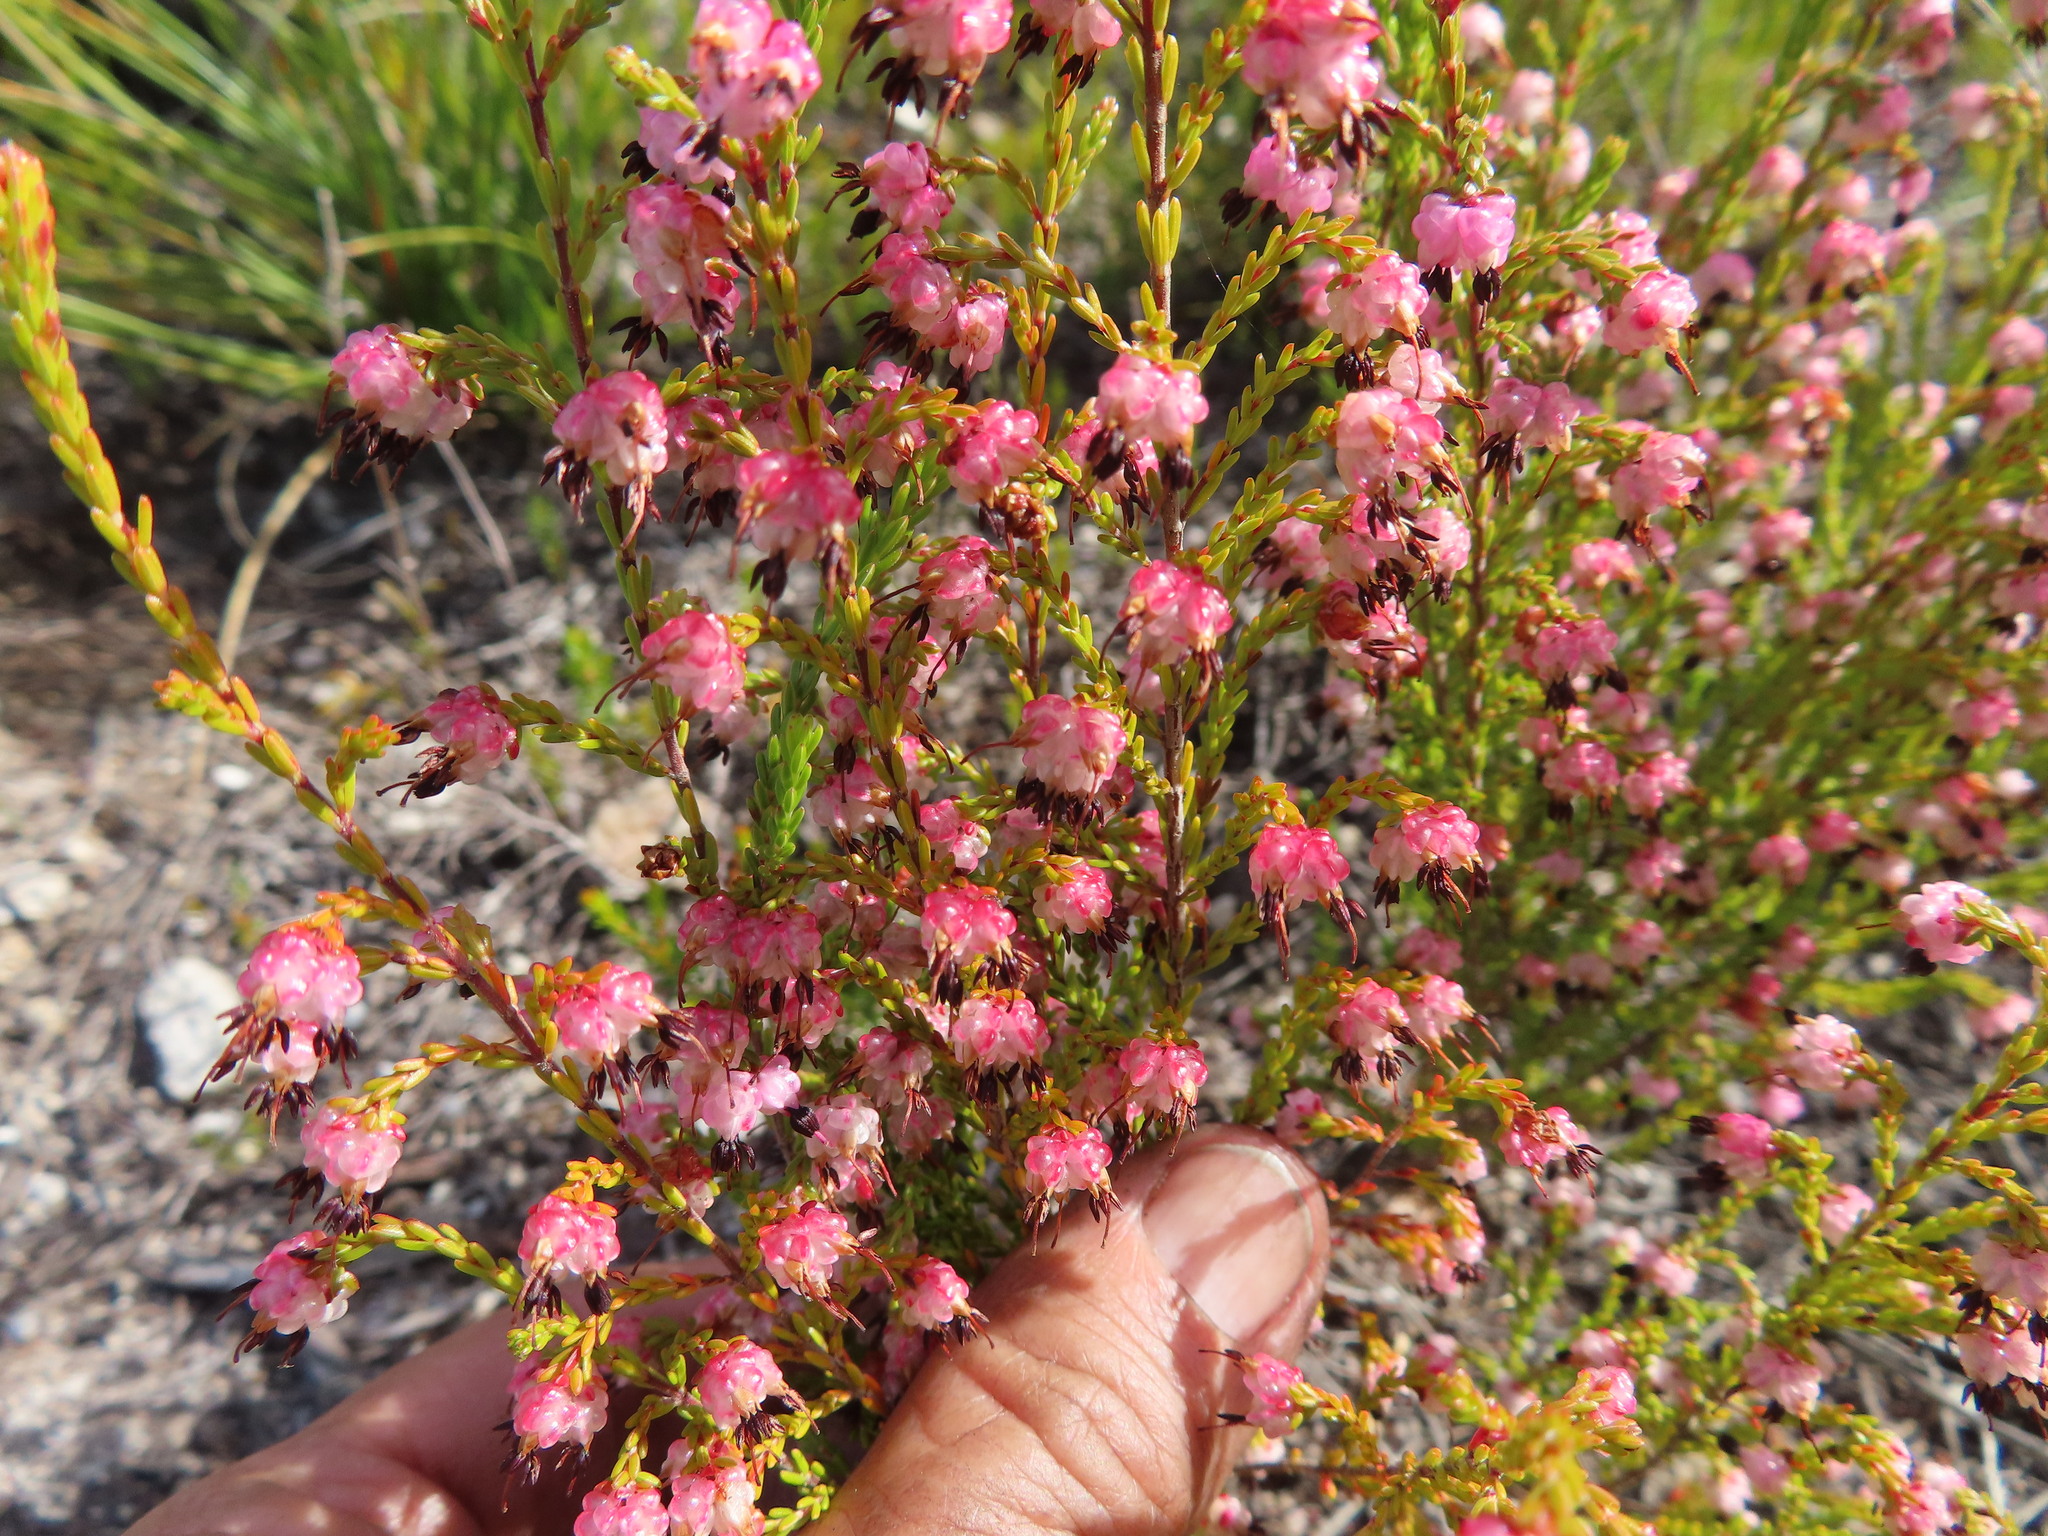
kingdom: Plantae
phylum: Tracheophyta
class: Magnoliopsida
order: Ericales
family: Ericaceae
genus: Erica
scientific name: Erica spumosa
